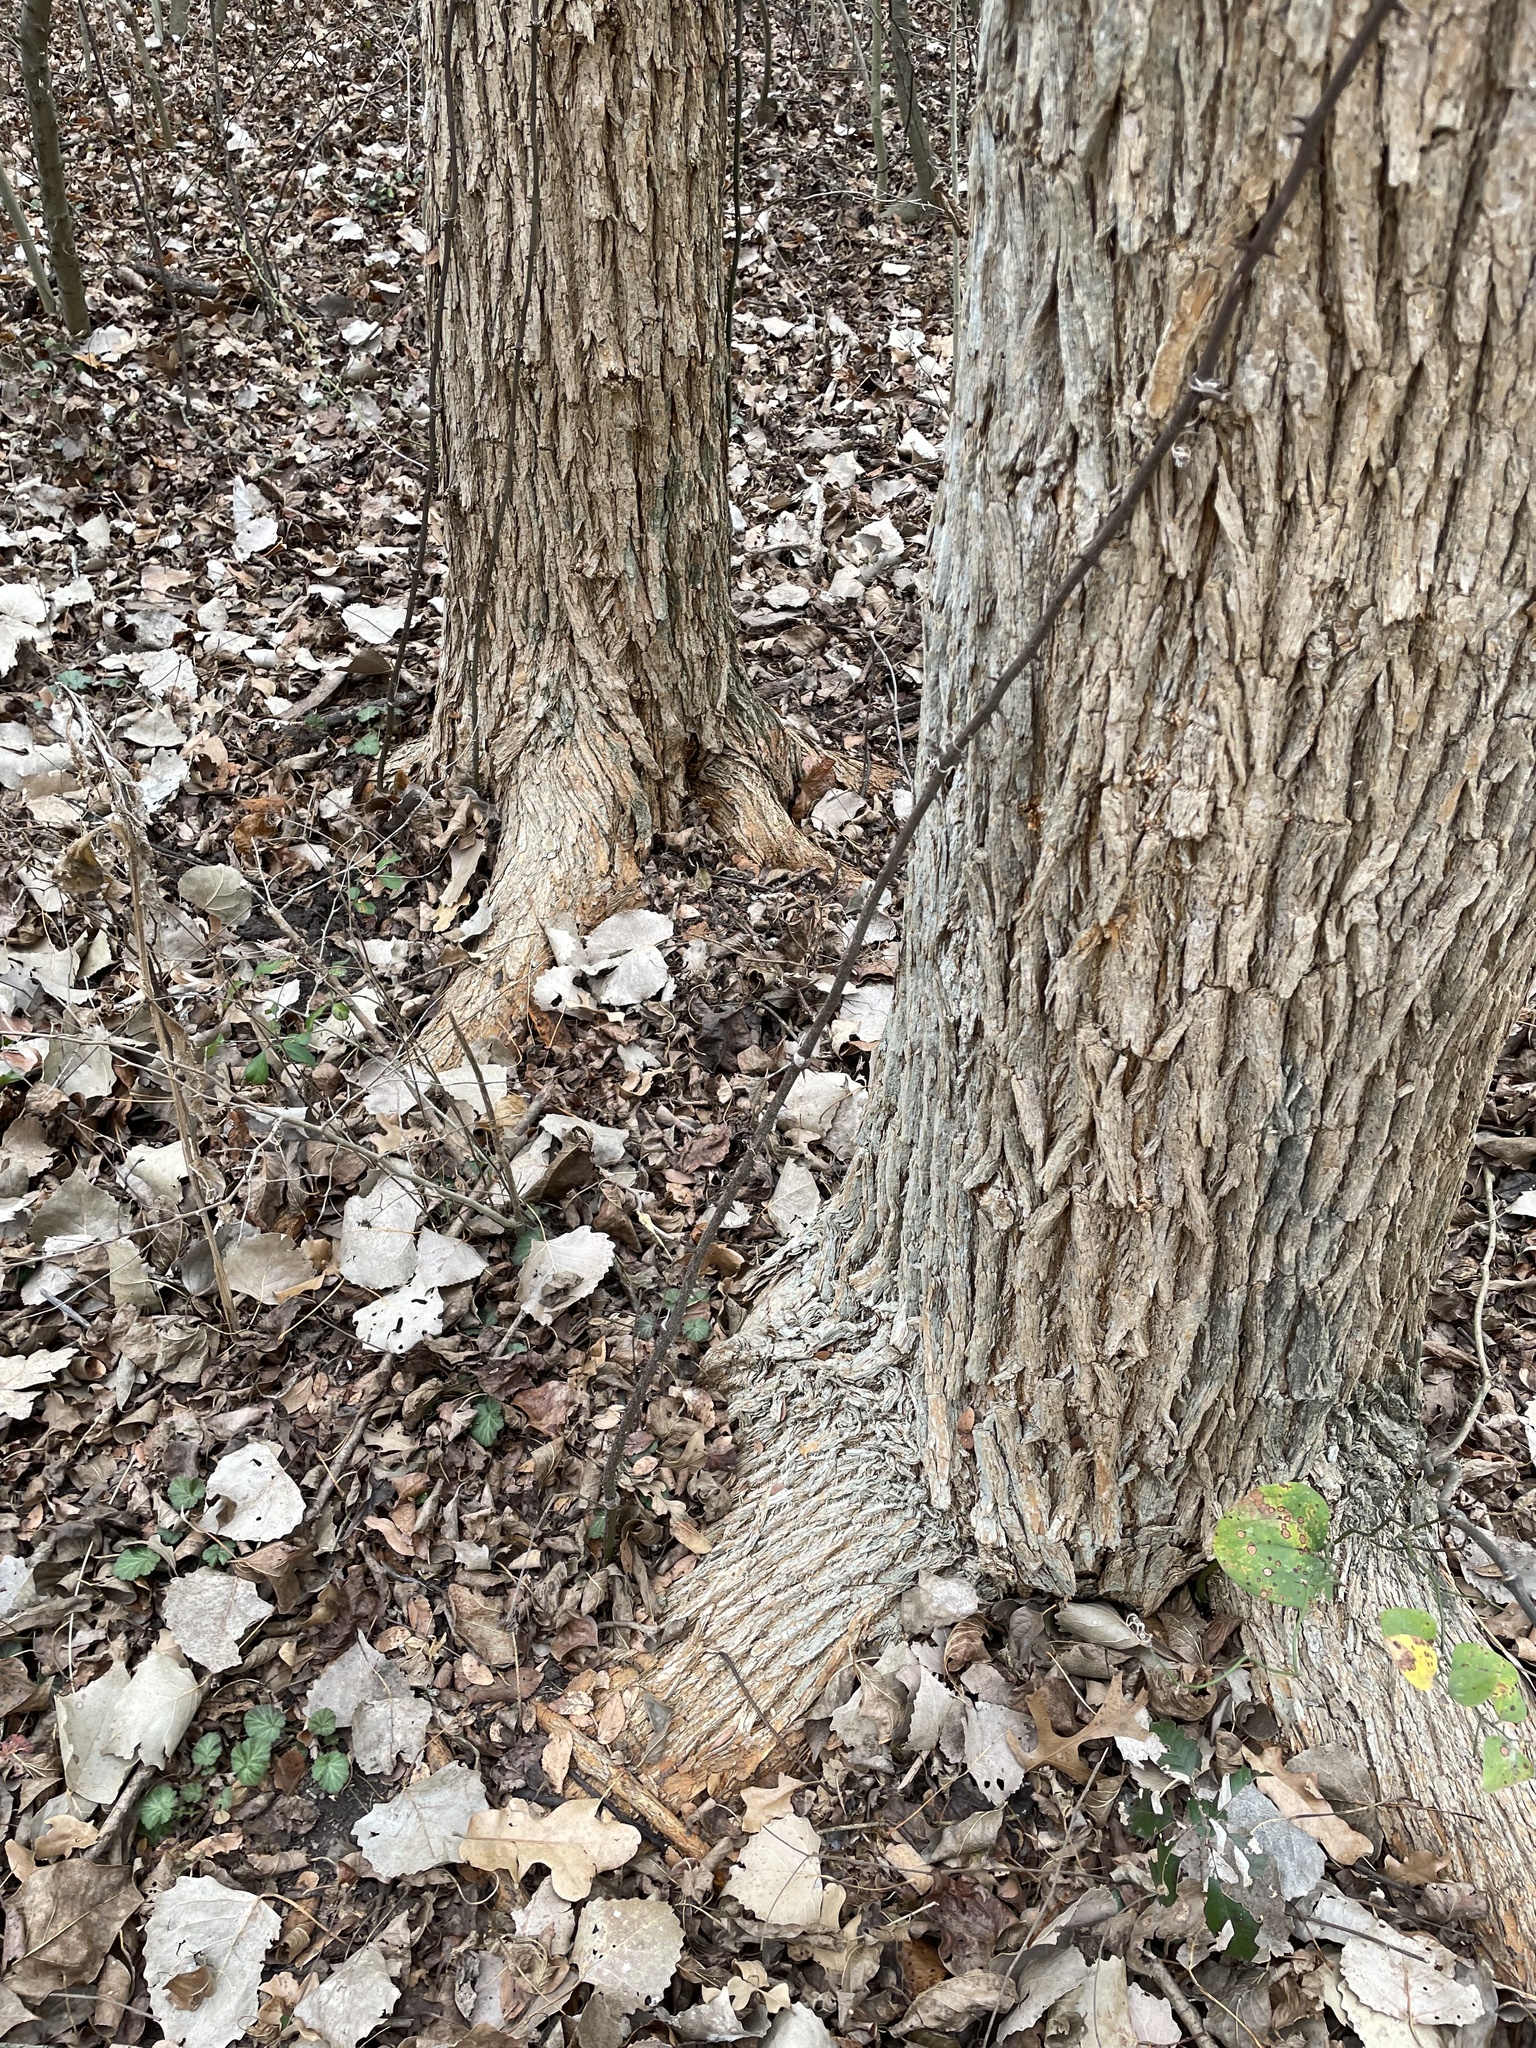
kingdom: Plantae
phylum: Tracheophyta
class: Magnoliopsida
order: Rosales
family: Moraceae
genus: Maclura
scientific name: Maclura pomifera
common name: Osage-orange
